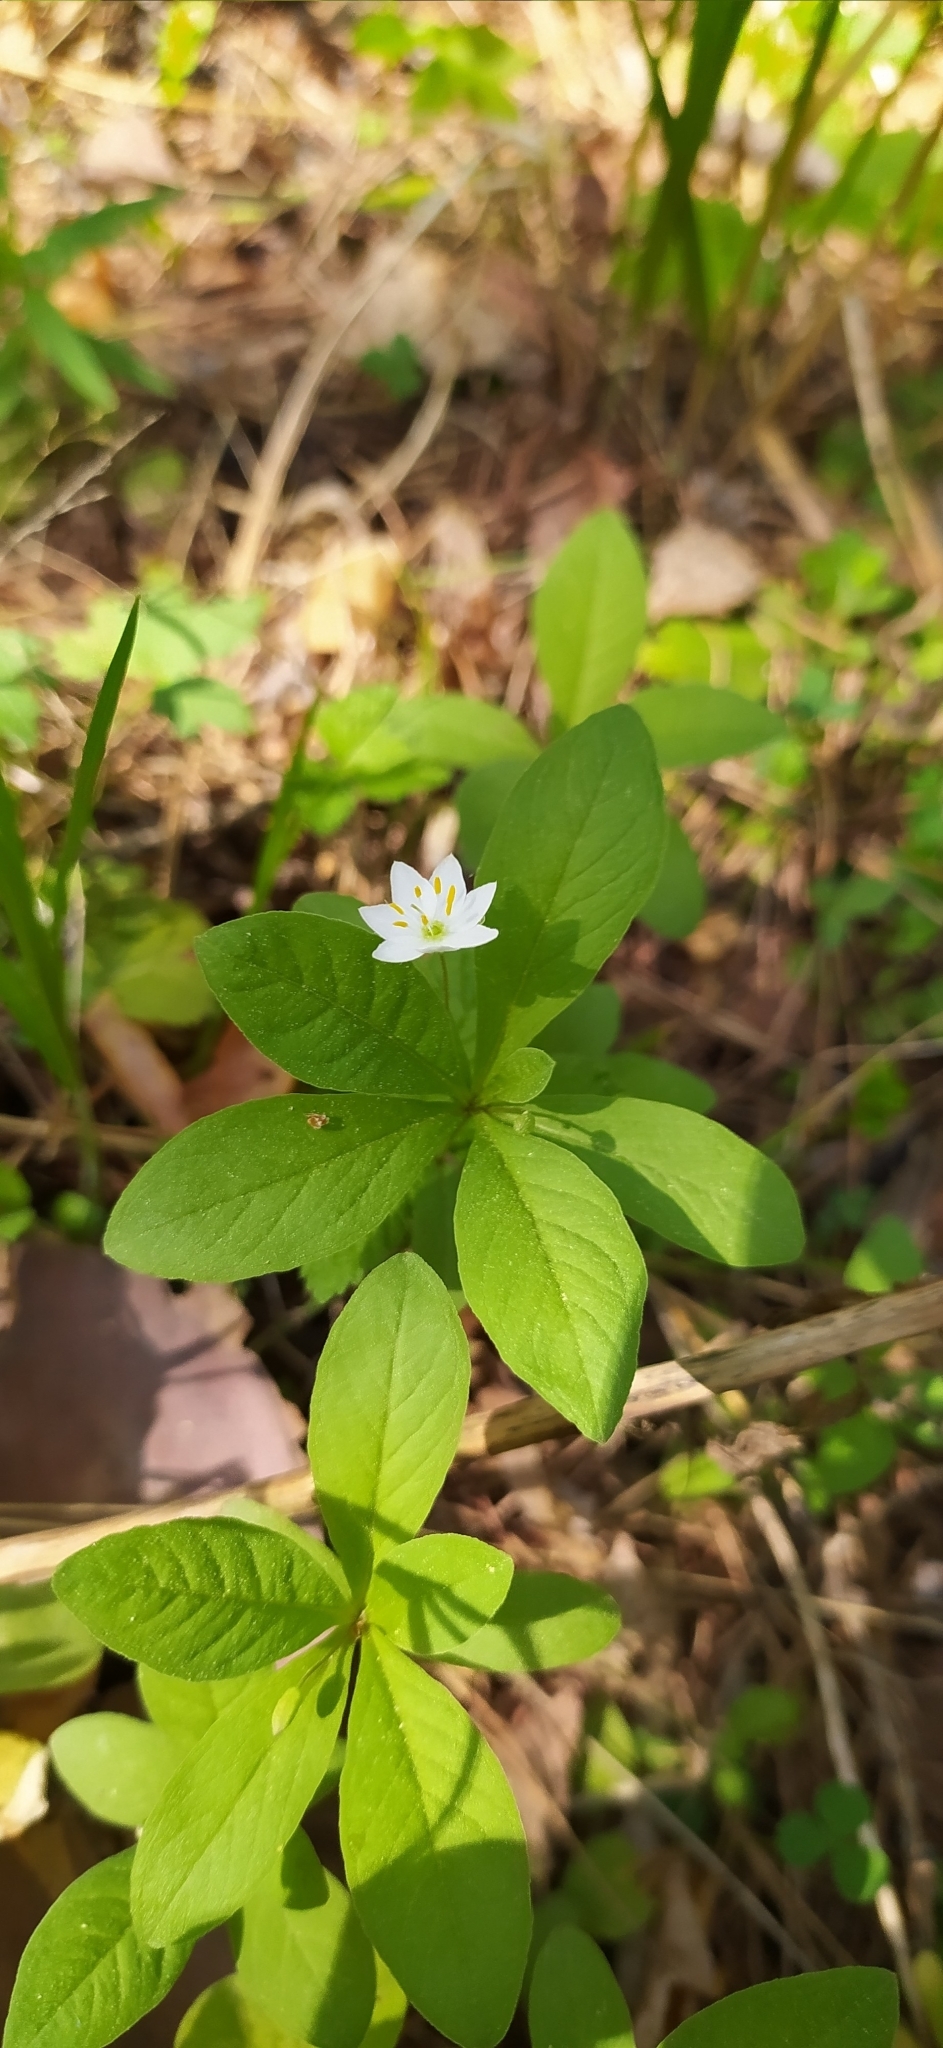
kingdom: Plantae
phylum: Tracheophyta
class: Magnoliopsida
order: Ericales
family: Primulaceae
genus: Lysimachia
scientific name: Lysimachia europaea
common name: Arctic starflower
